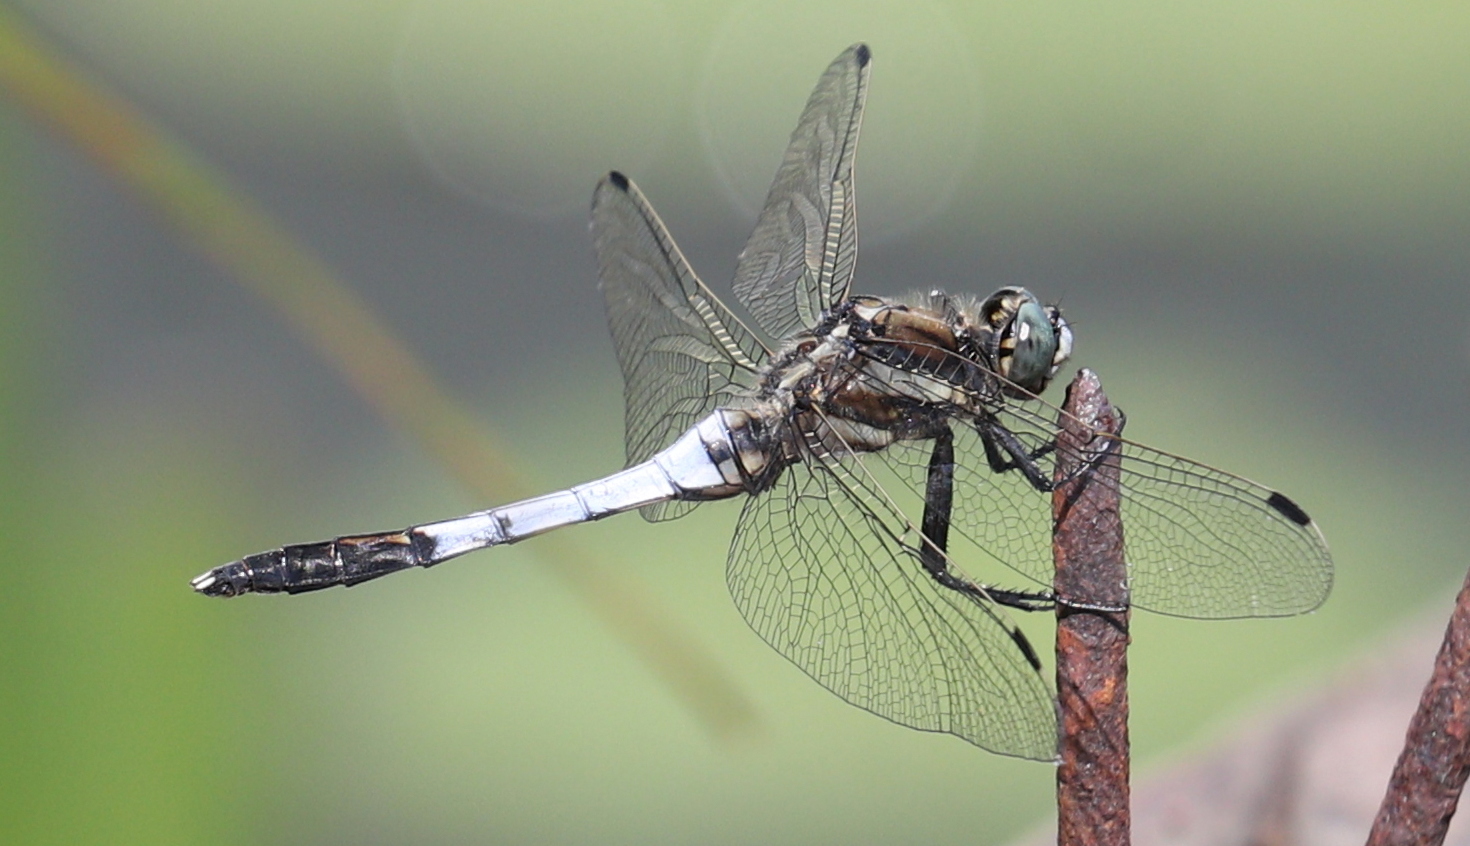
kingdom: Animalia
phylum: Arthropoda
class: Insecta
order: Odonata
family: Libellulidae
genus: Orthetrum
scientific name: Orthetrum albistylum
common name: White-tailed skimmer
